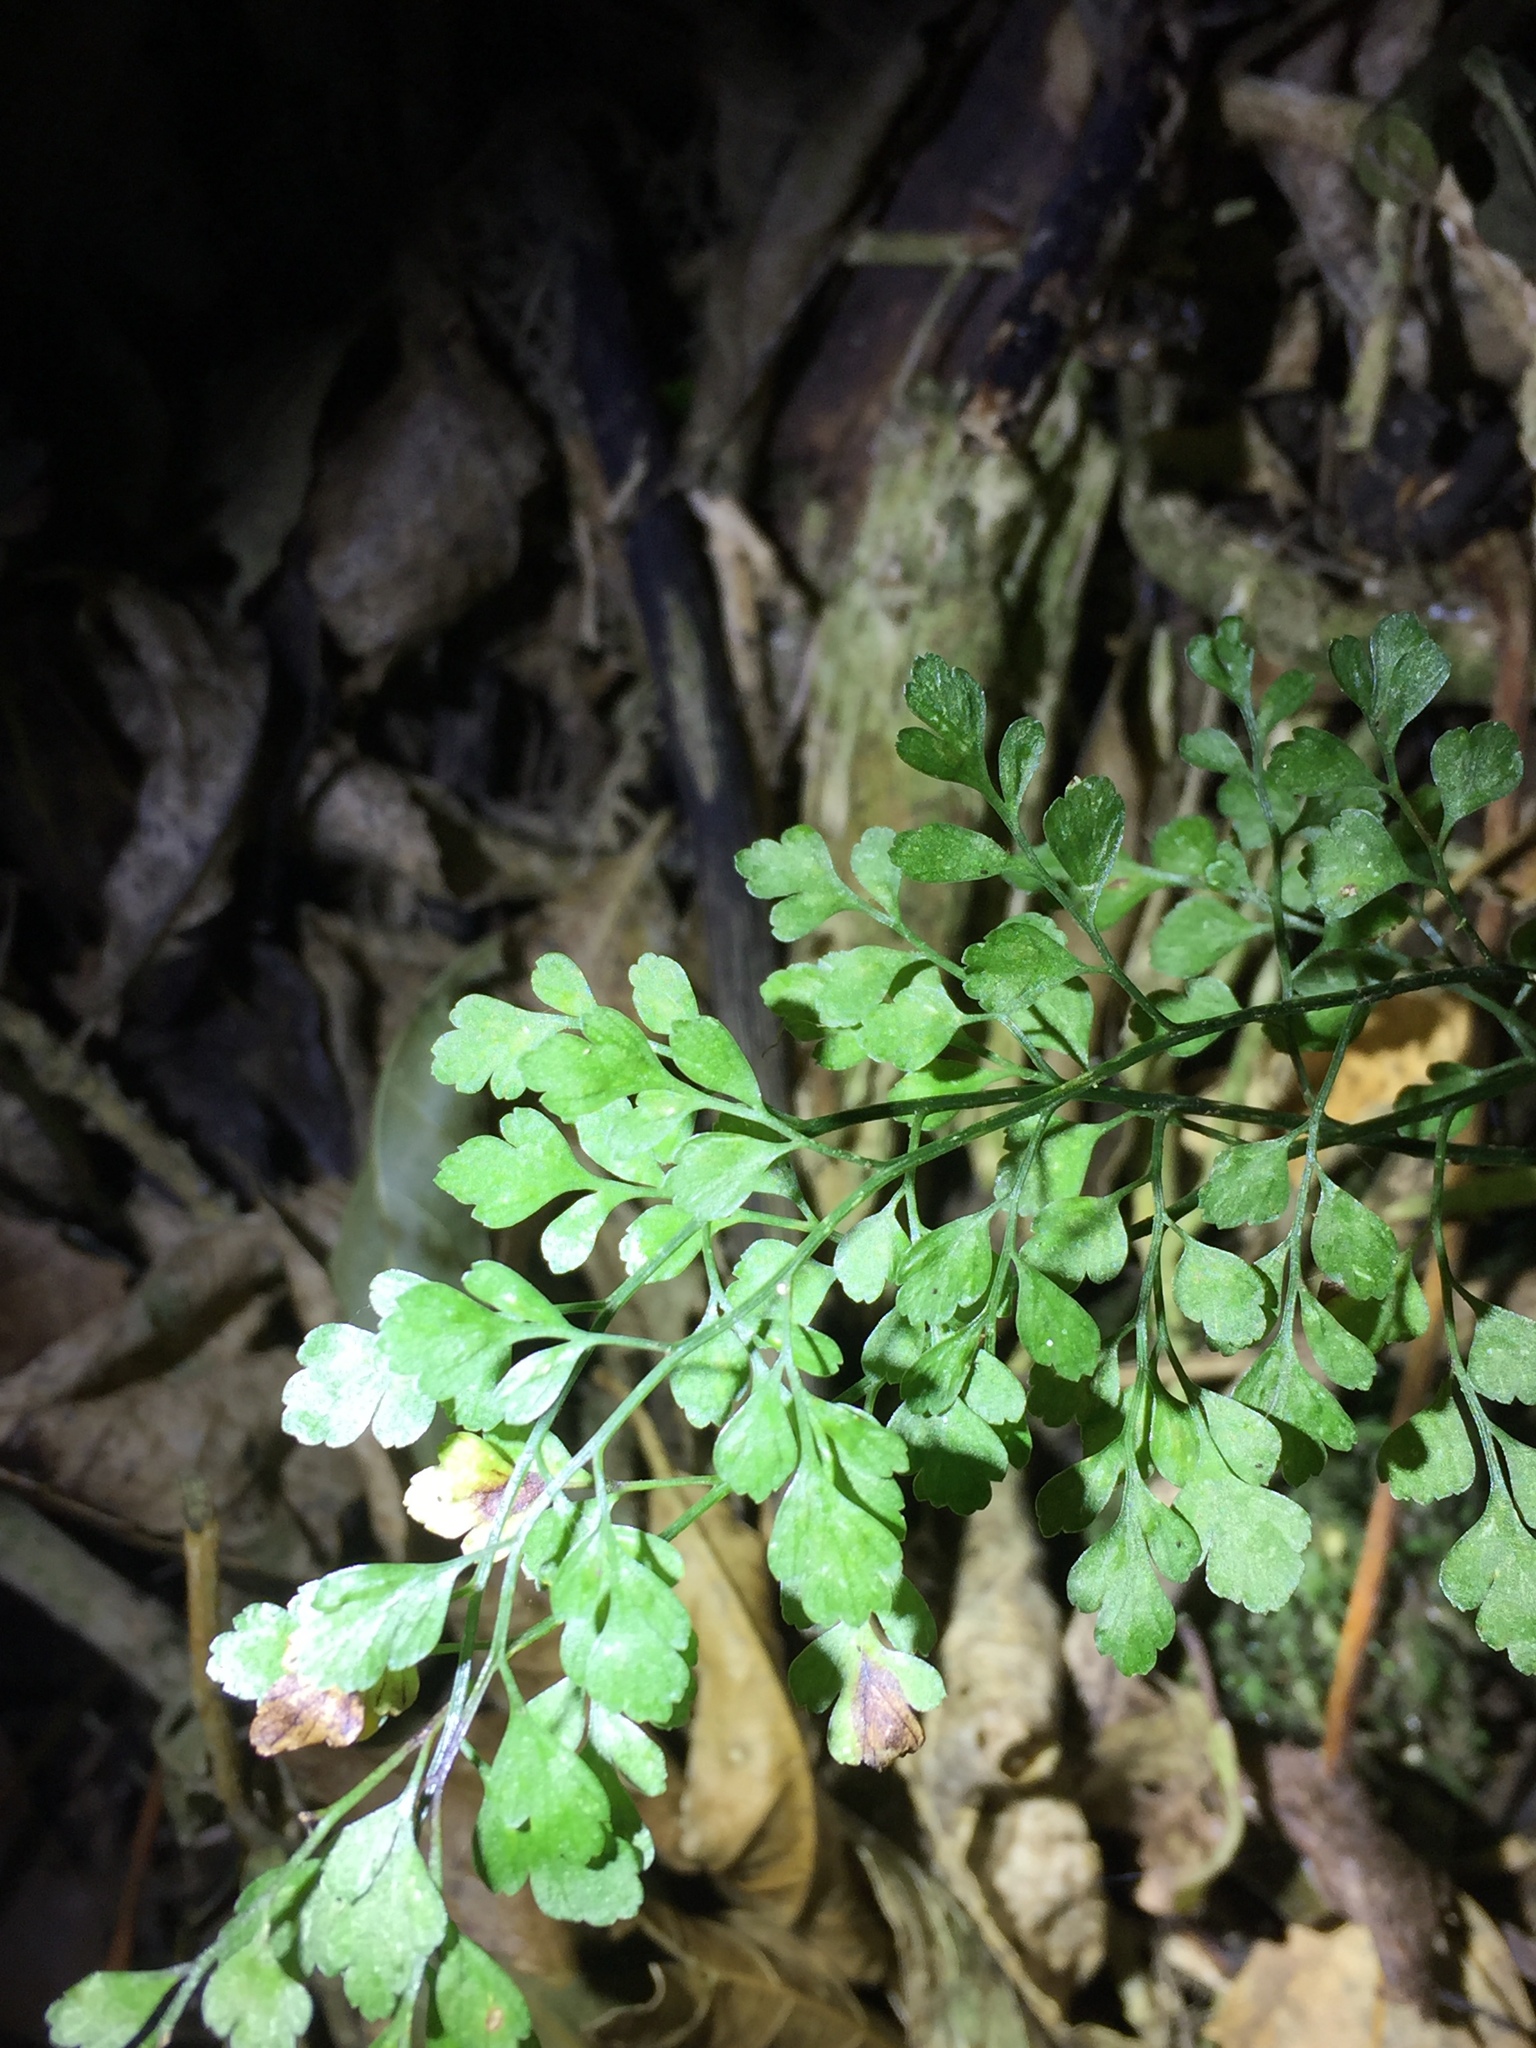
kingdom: Plantae
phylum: Tracheophyta
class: Polypodiopsida
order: Polypodiales
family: Aspleniaceae
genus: Asplenium
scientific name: Asplenium hookerianum
